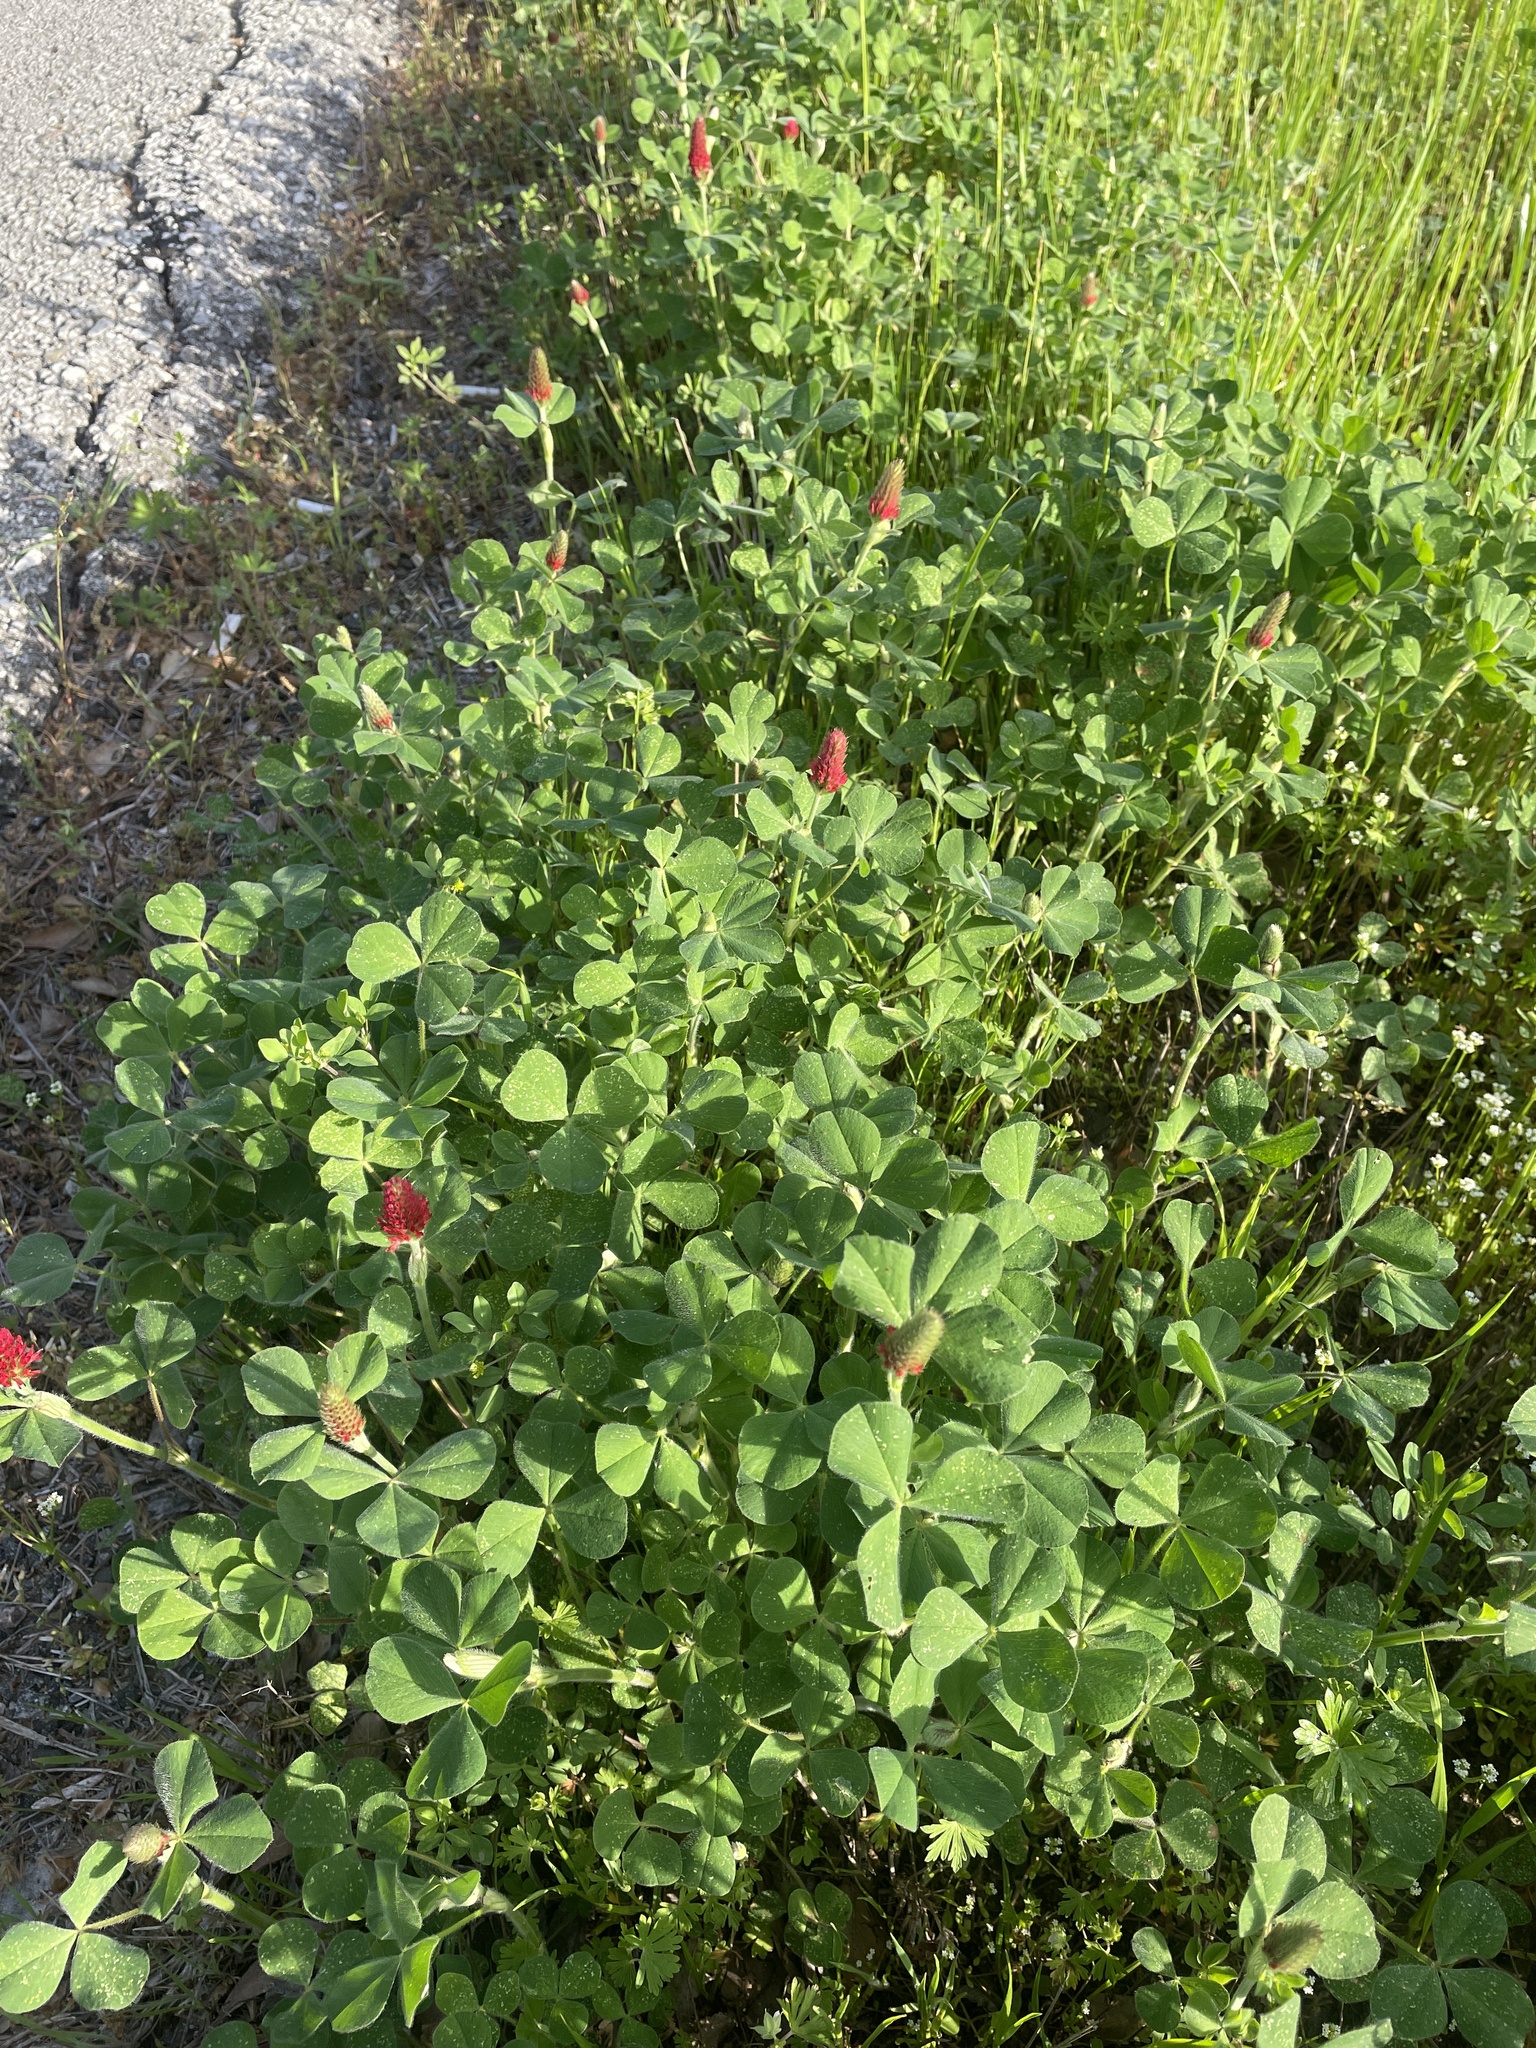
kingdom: Plantae
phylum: Tracheophyta
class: Magnoliopsida
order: Fabales
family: Fabaceae
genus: Trifolium
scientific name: Trifolium incarnatum
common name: Crimson clover
